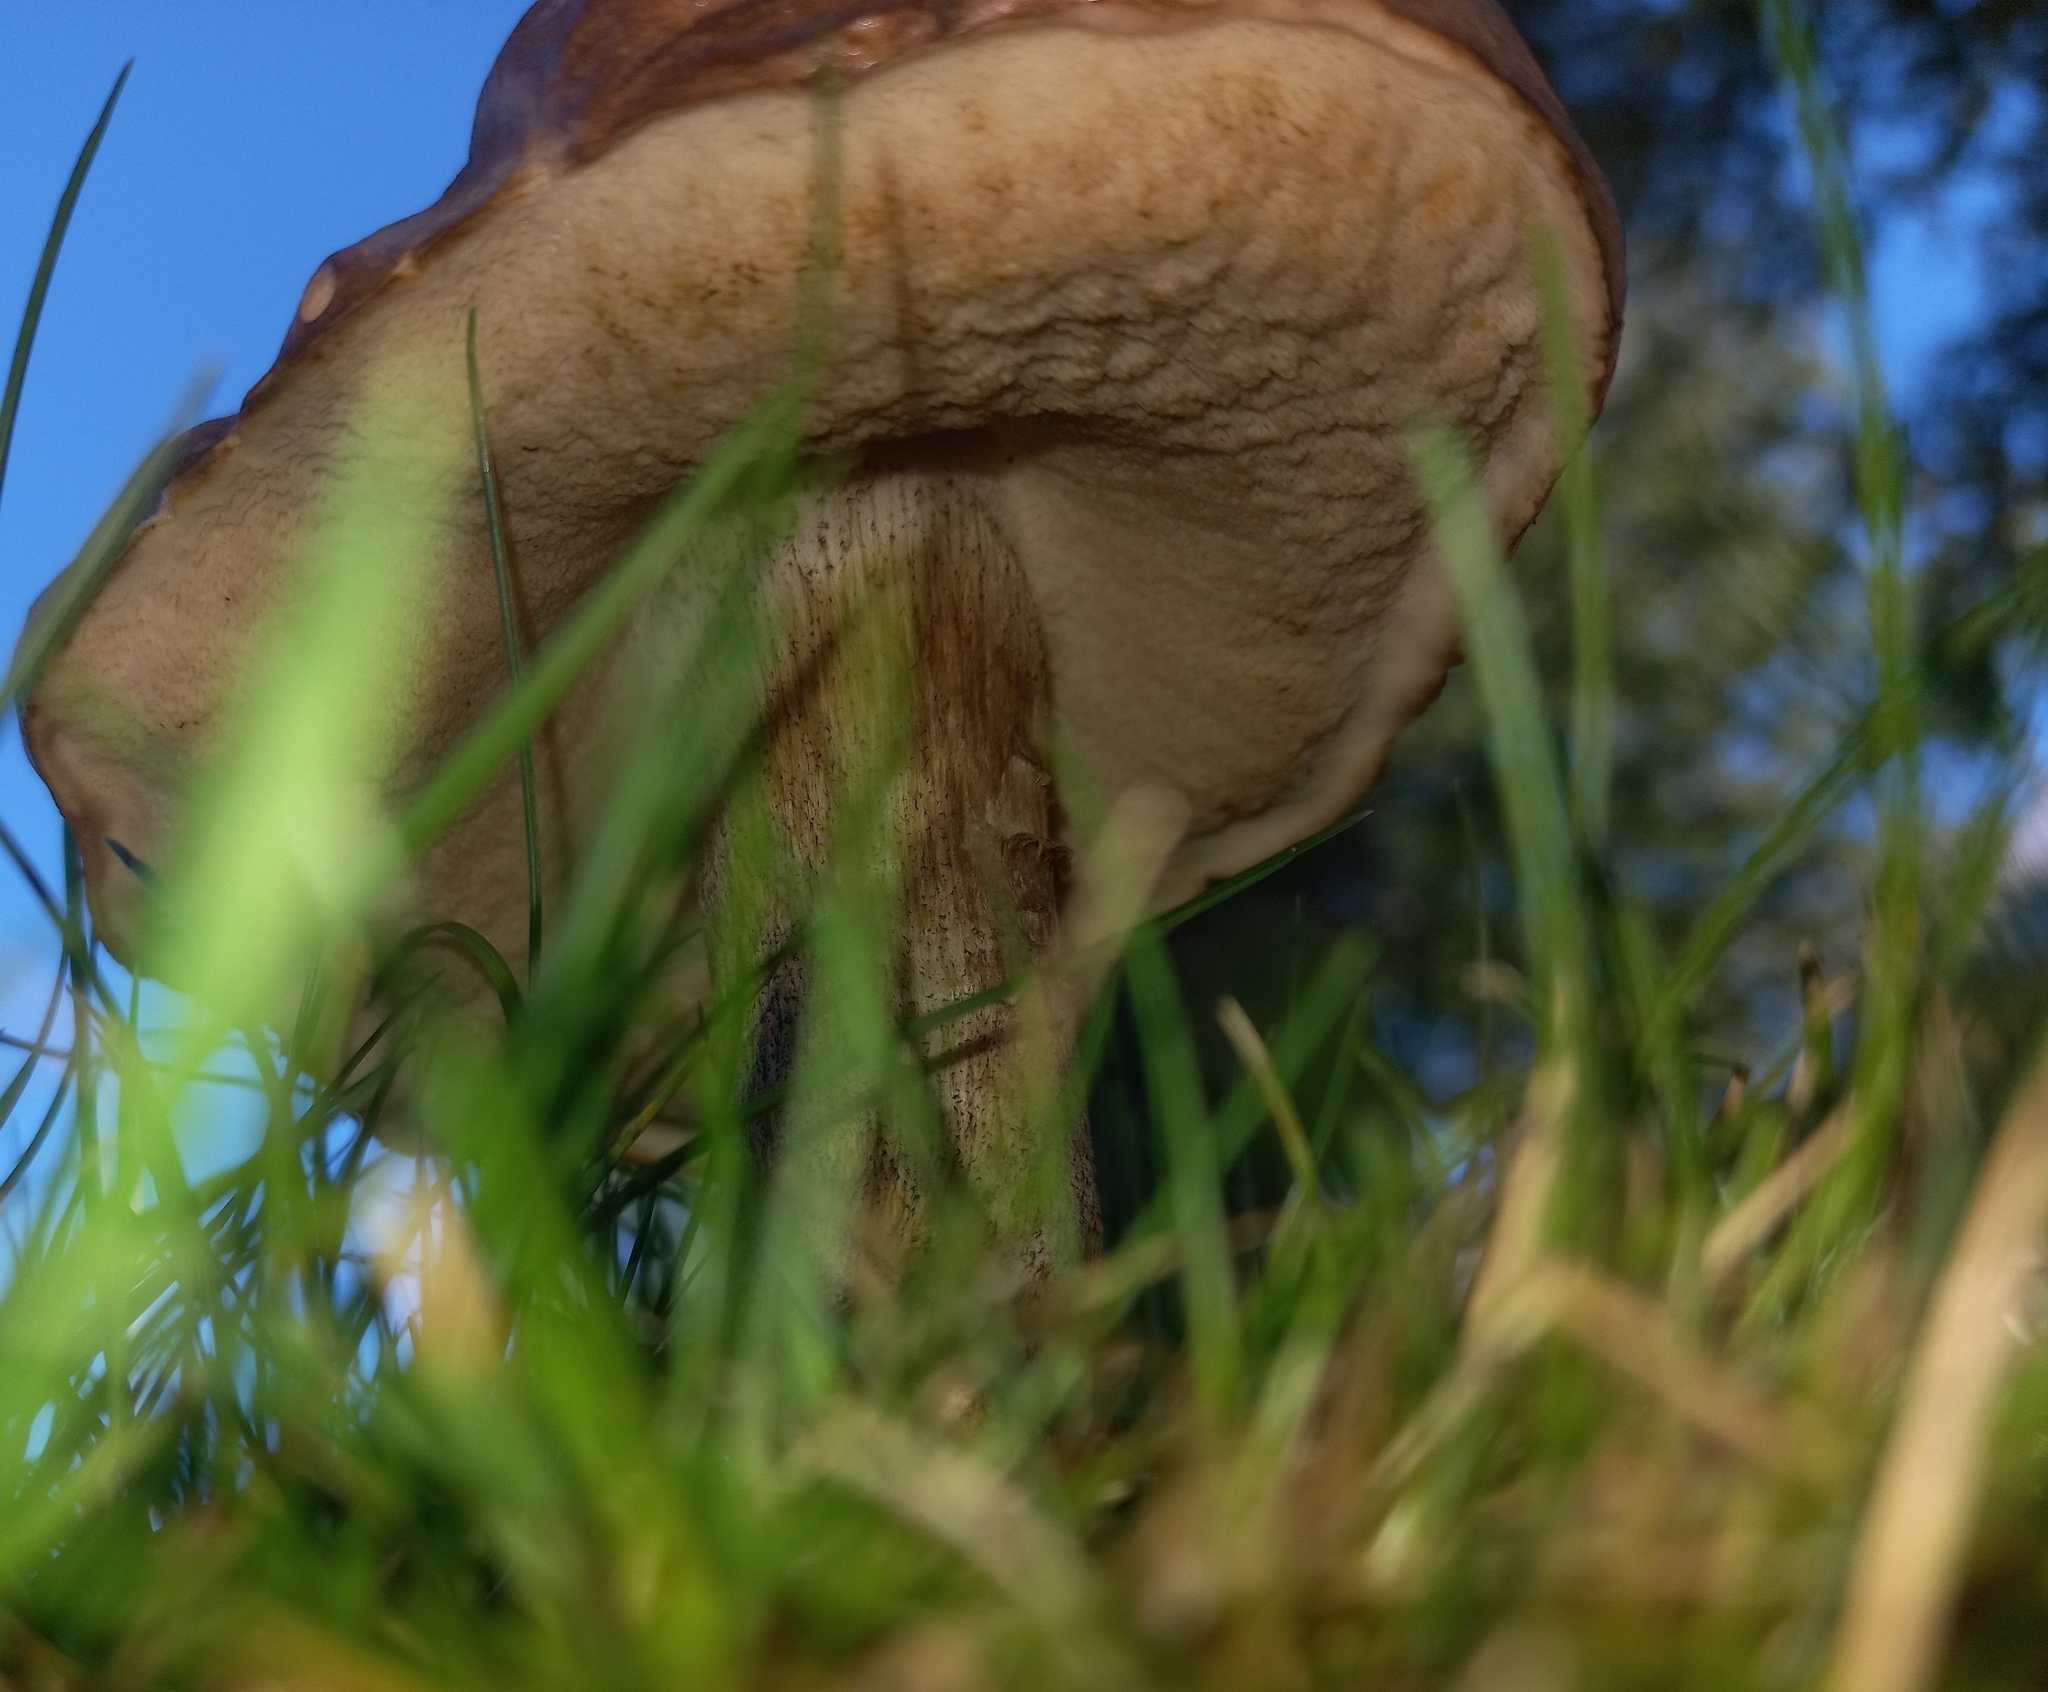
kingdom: Fungi
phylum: Basidiomycota
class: Agaricomycetes
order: Boletales
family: Boletaceae
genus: Leccinum
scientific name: Leccinum scabrum
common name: Blushing bolete
